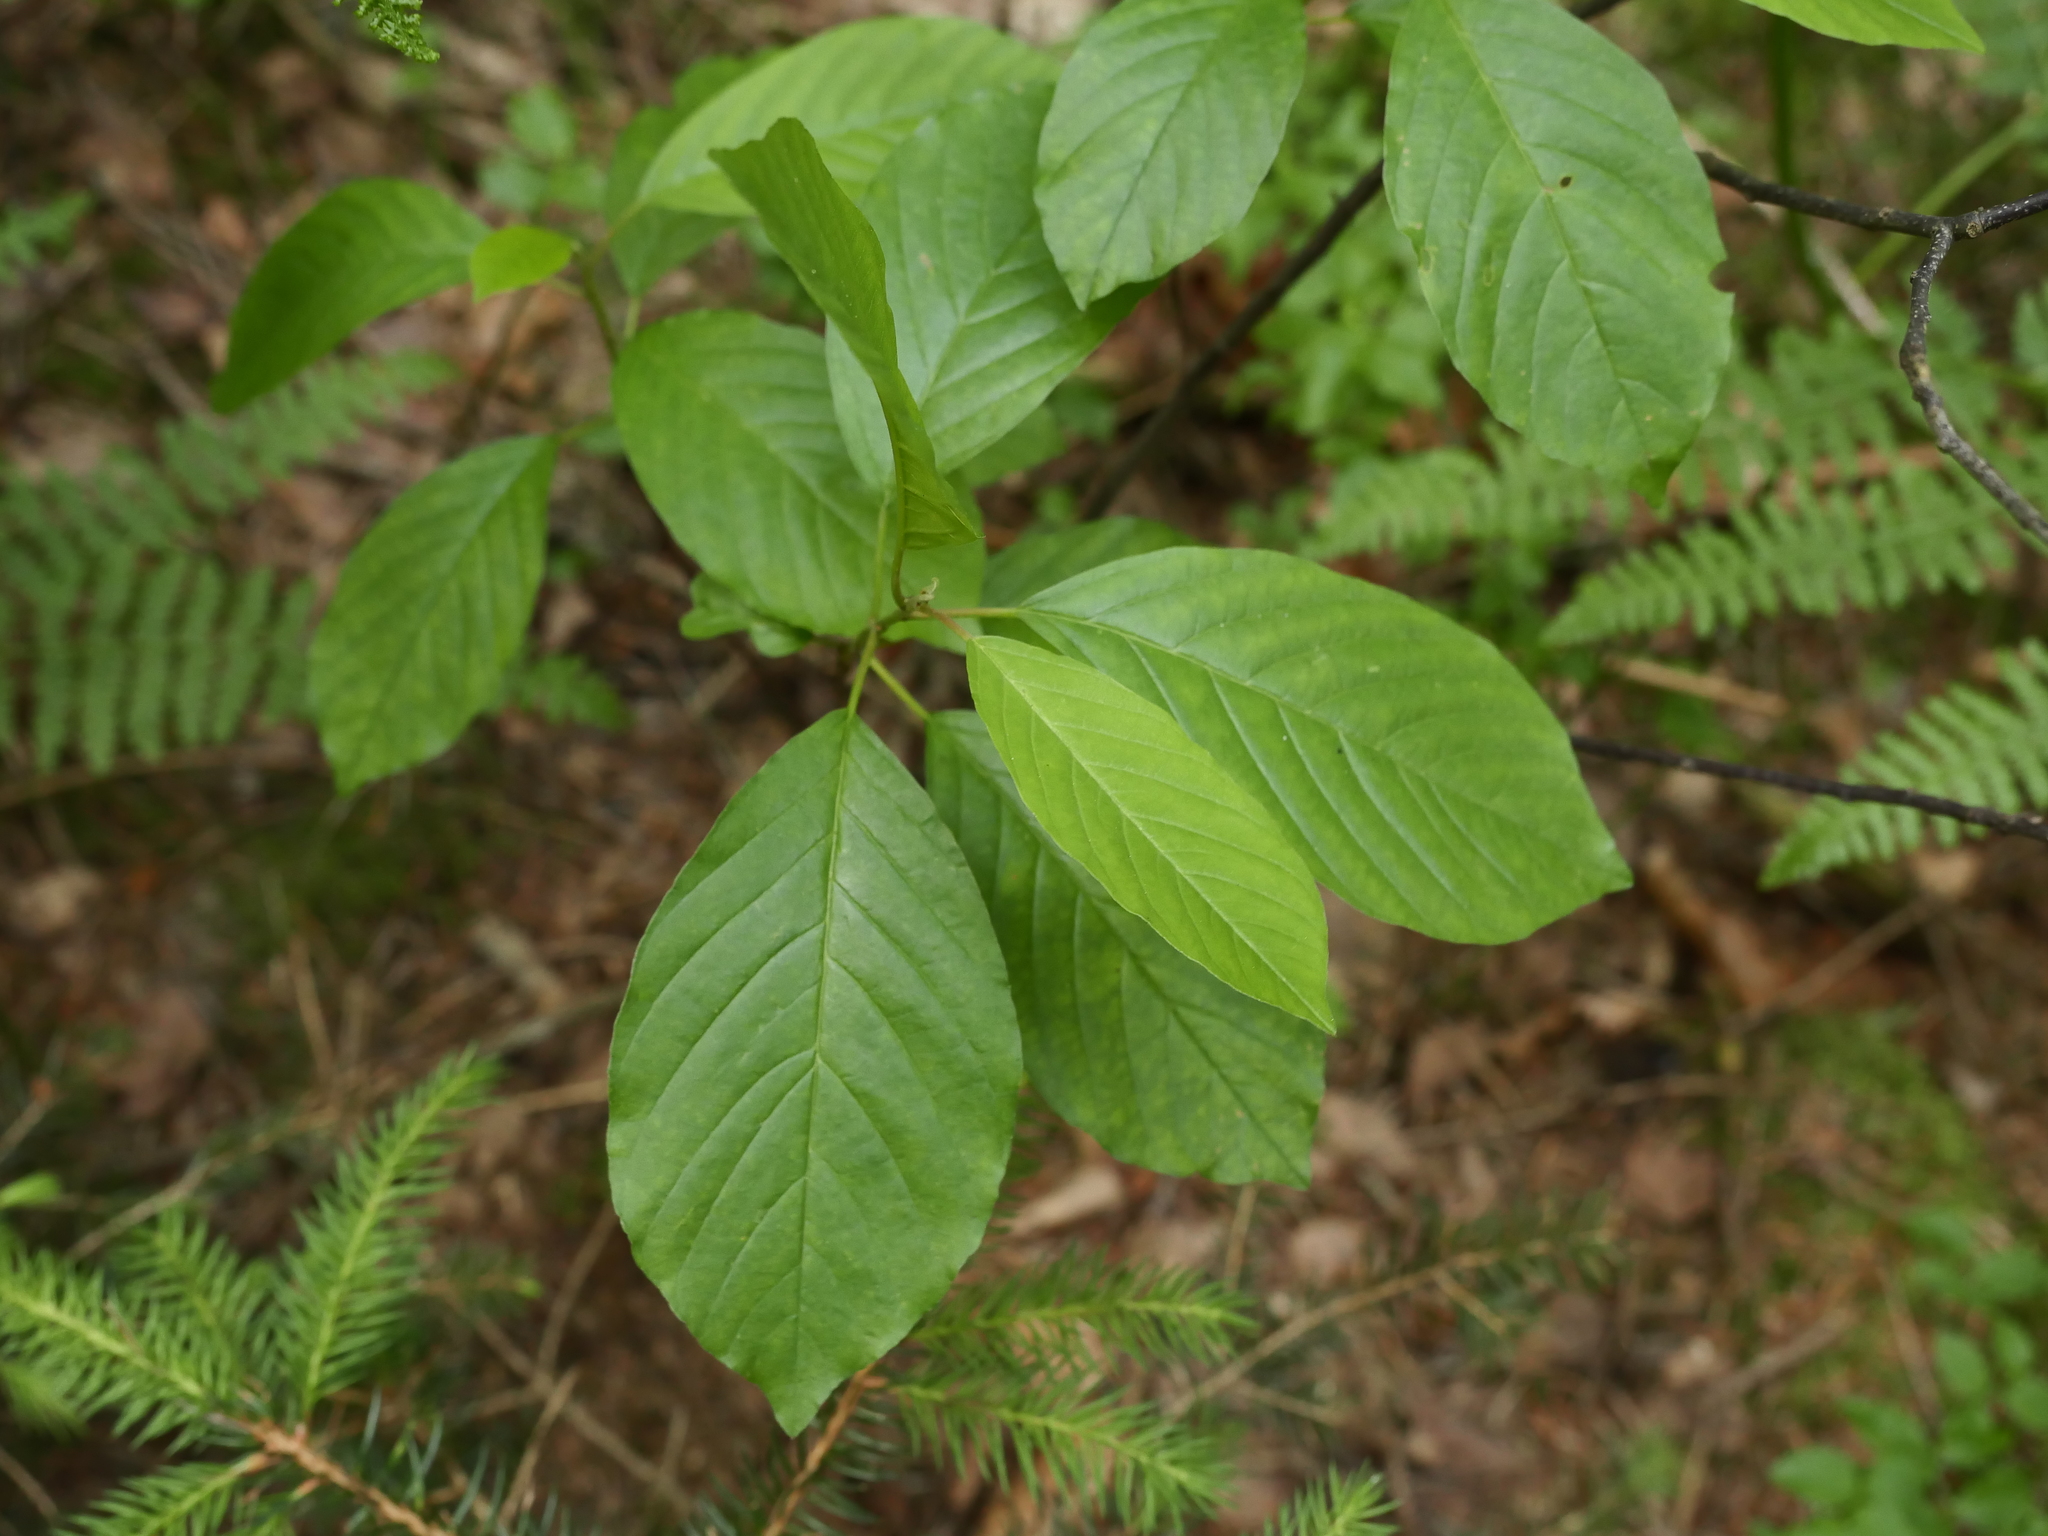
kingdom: Plantae
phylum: Tracheophyta
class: Magnoliopsida
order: Rosales
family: Rhamnaceae
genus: Frangula
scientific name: Frangula alnus
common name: Alder buckthorn
